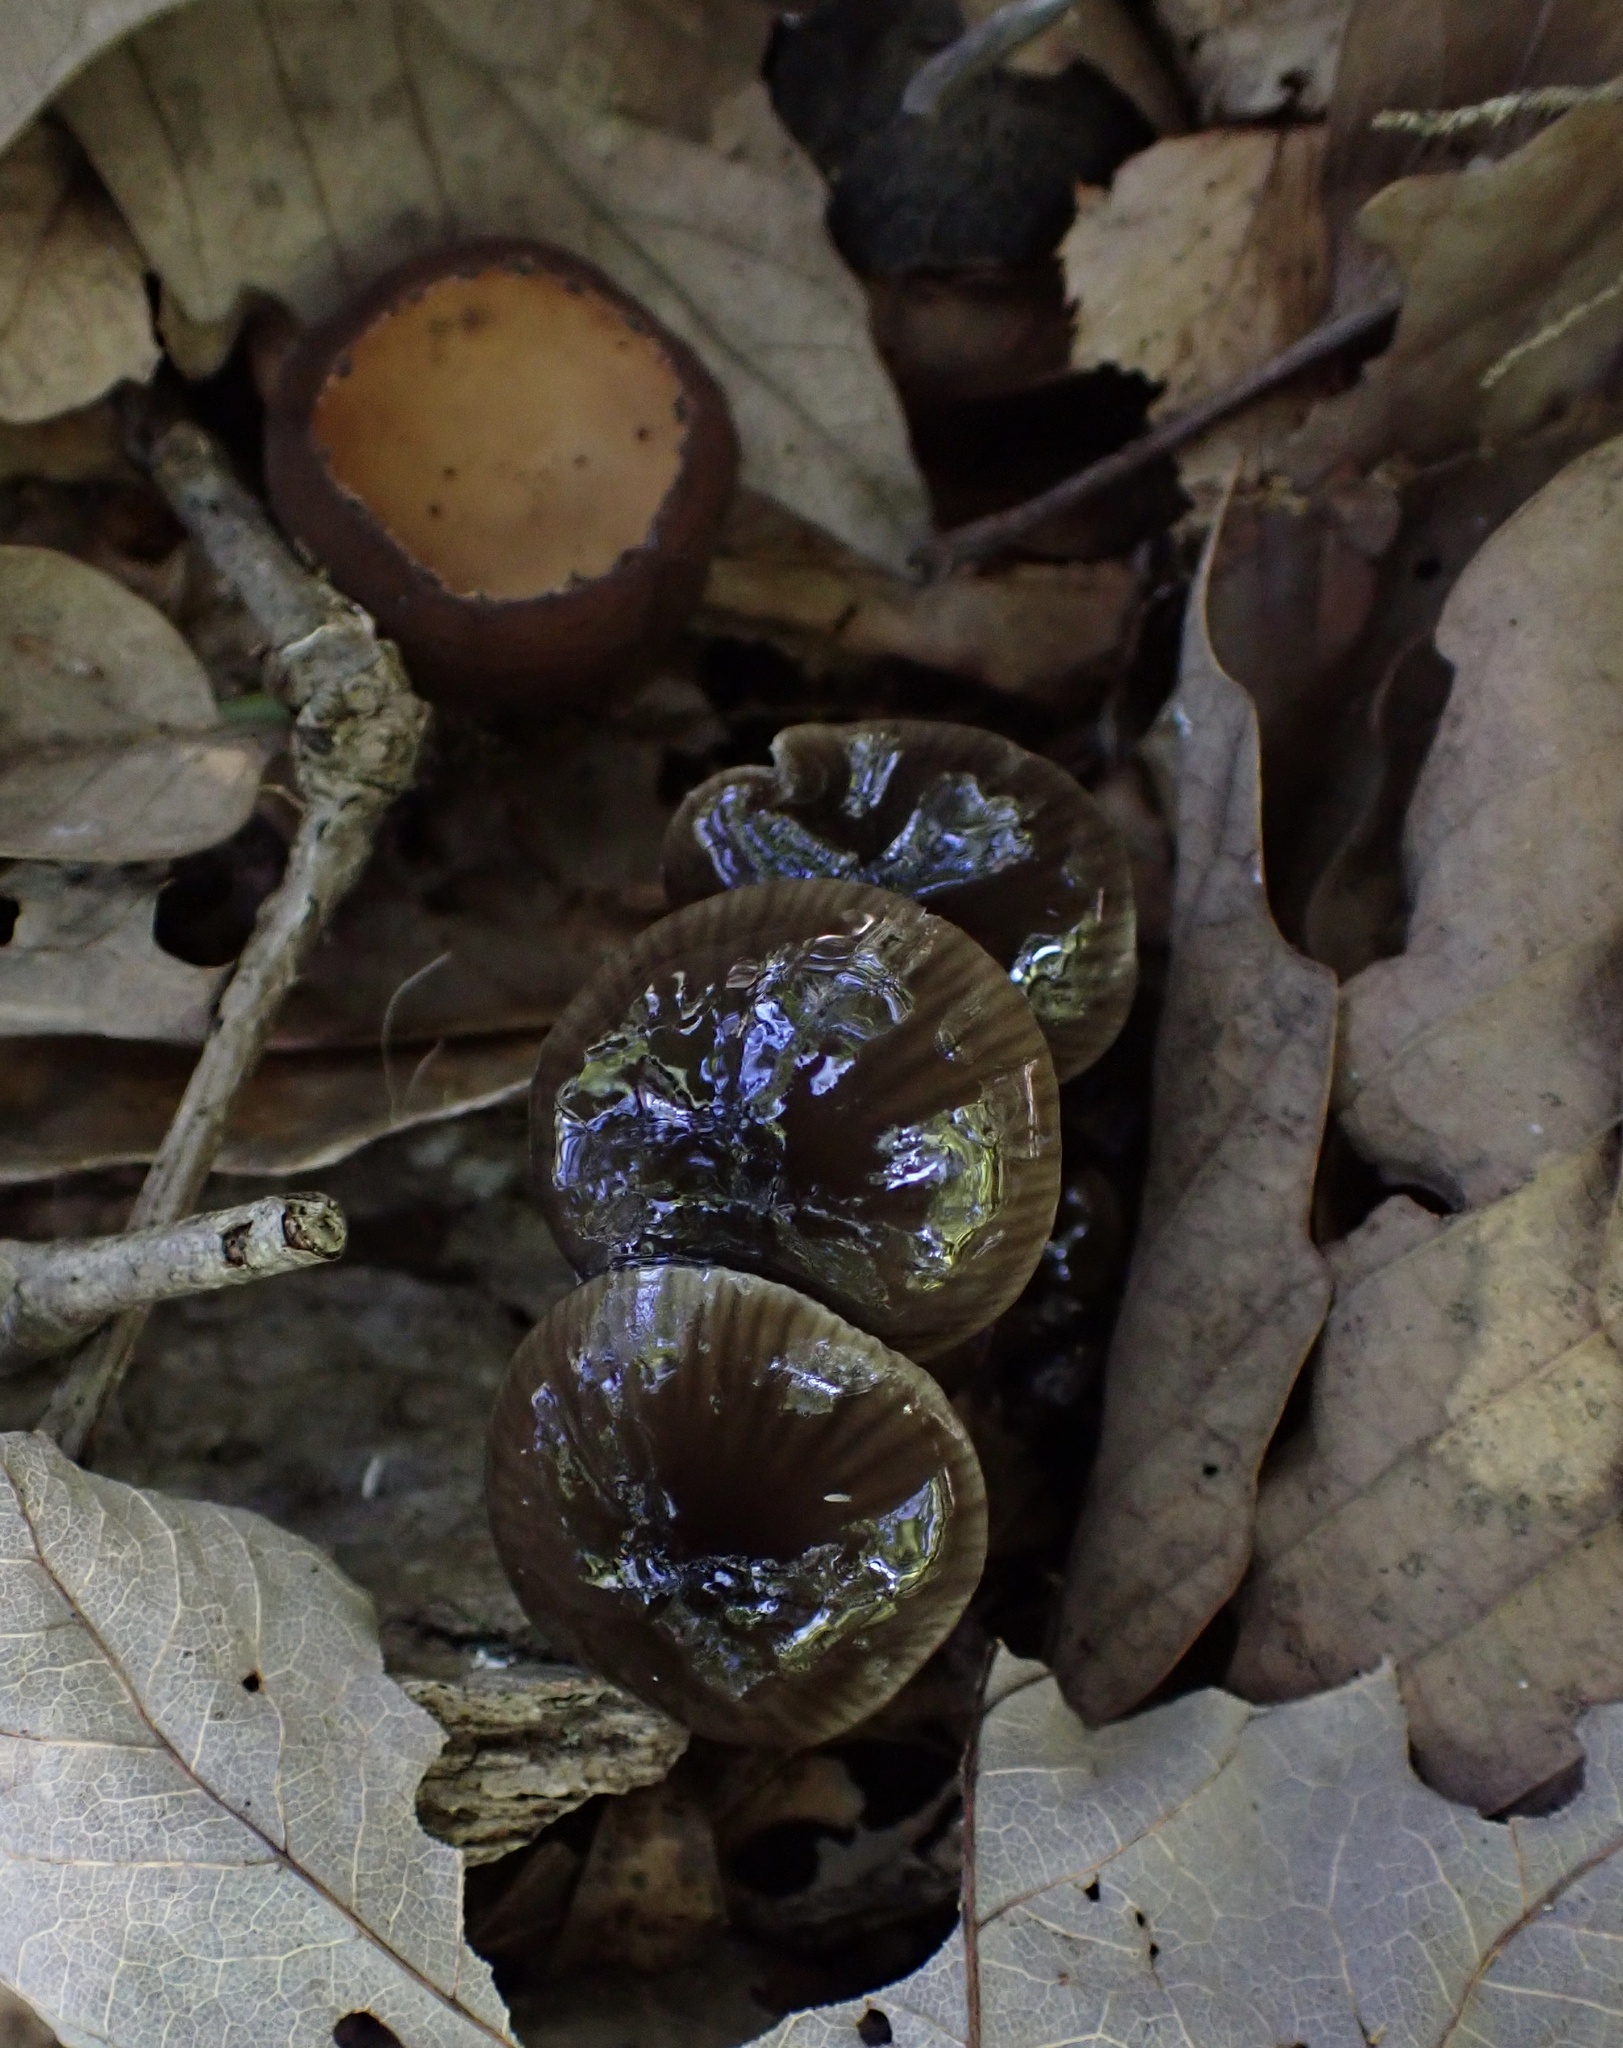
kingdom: Fungi
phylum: Basidiomycota
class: Agaricomycetes
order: Agaricales
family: Hygrophoraceae
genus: Gliophorus
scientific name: Gliophorus irrigatus
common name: Slimy waxcap
